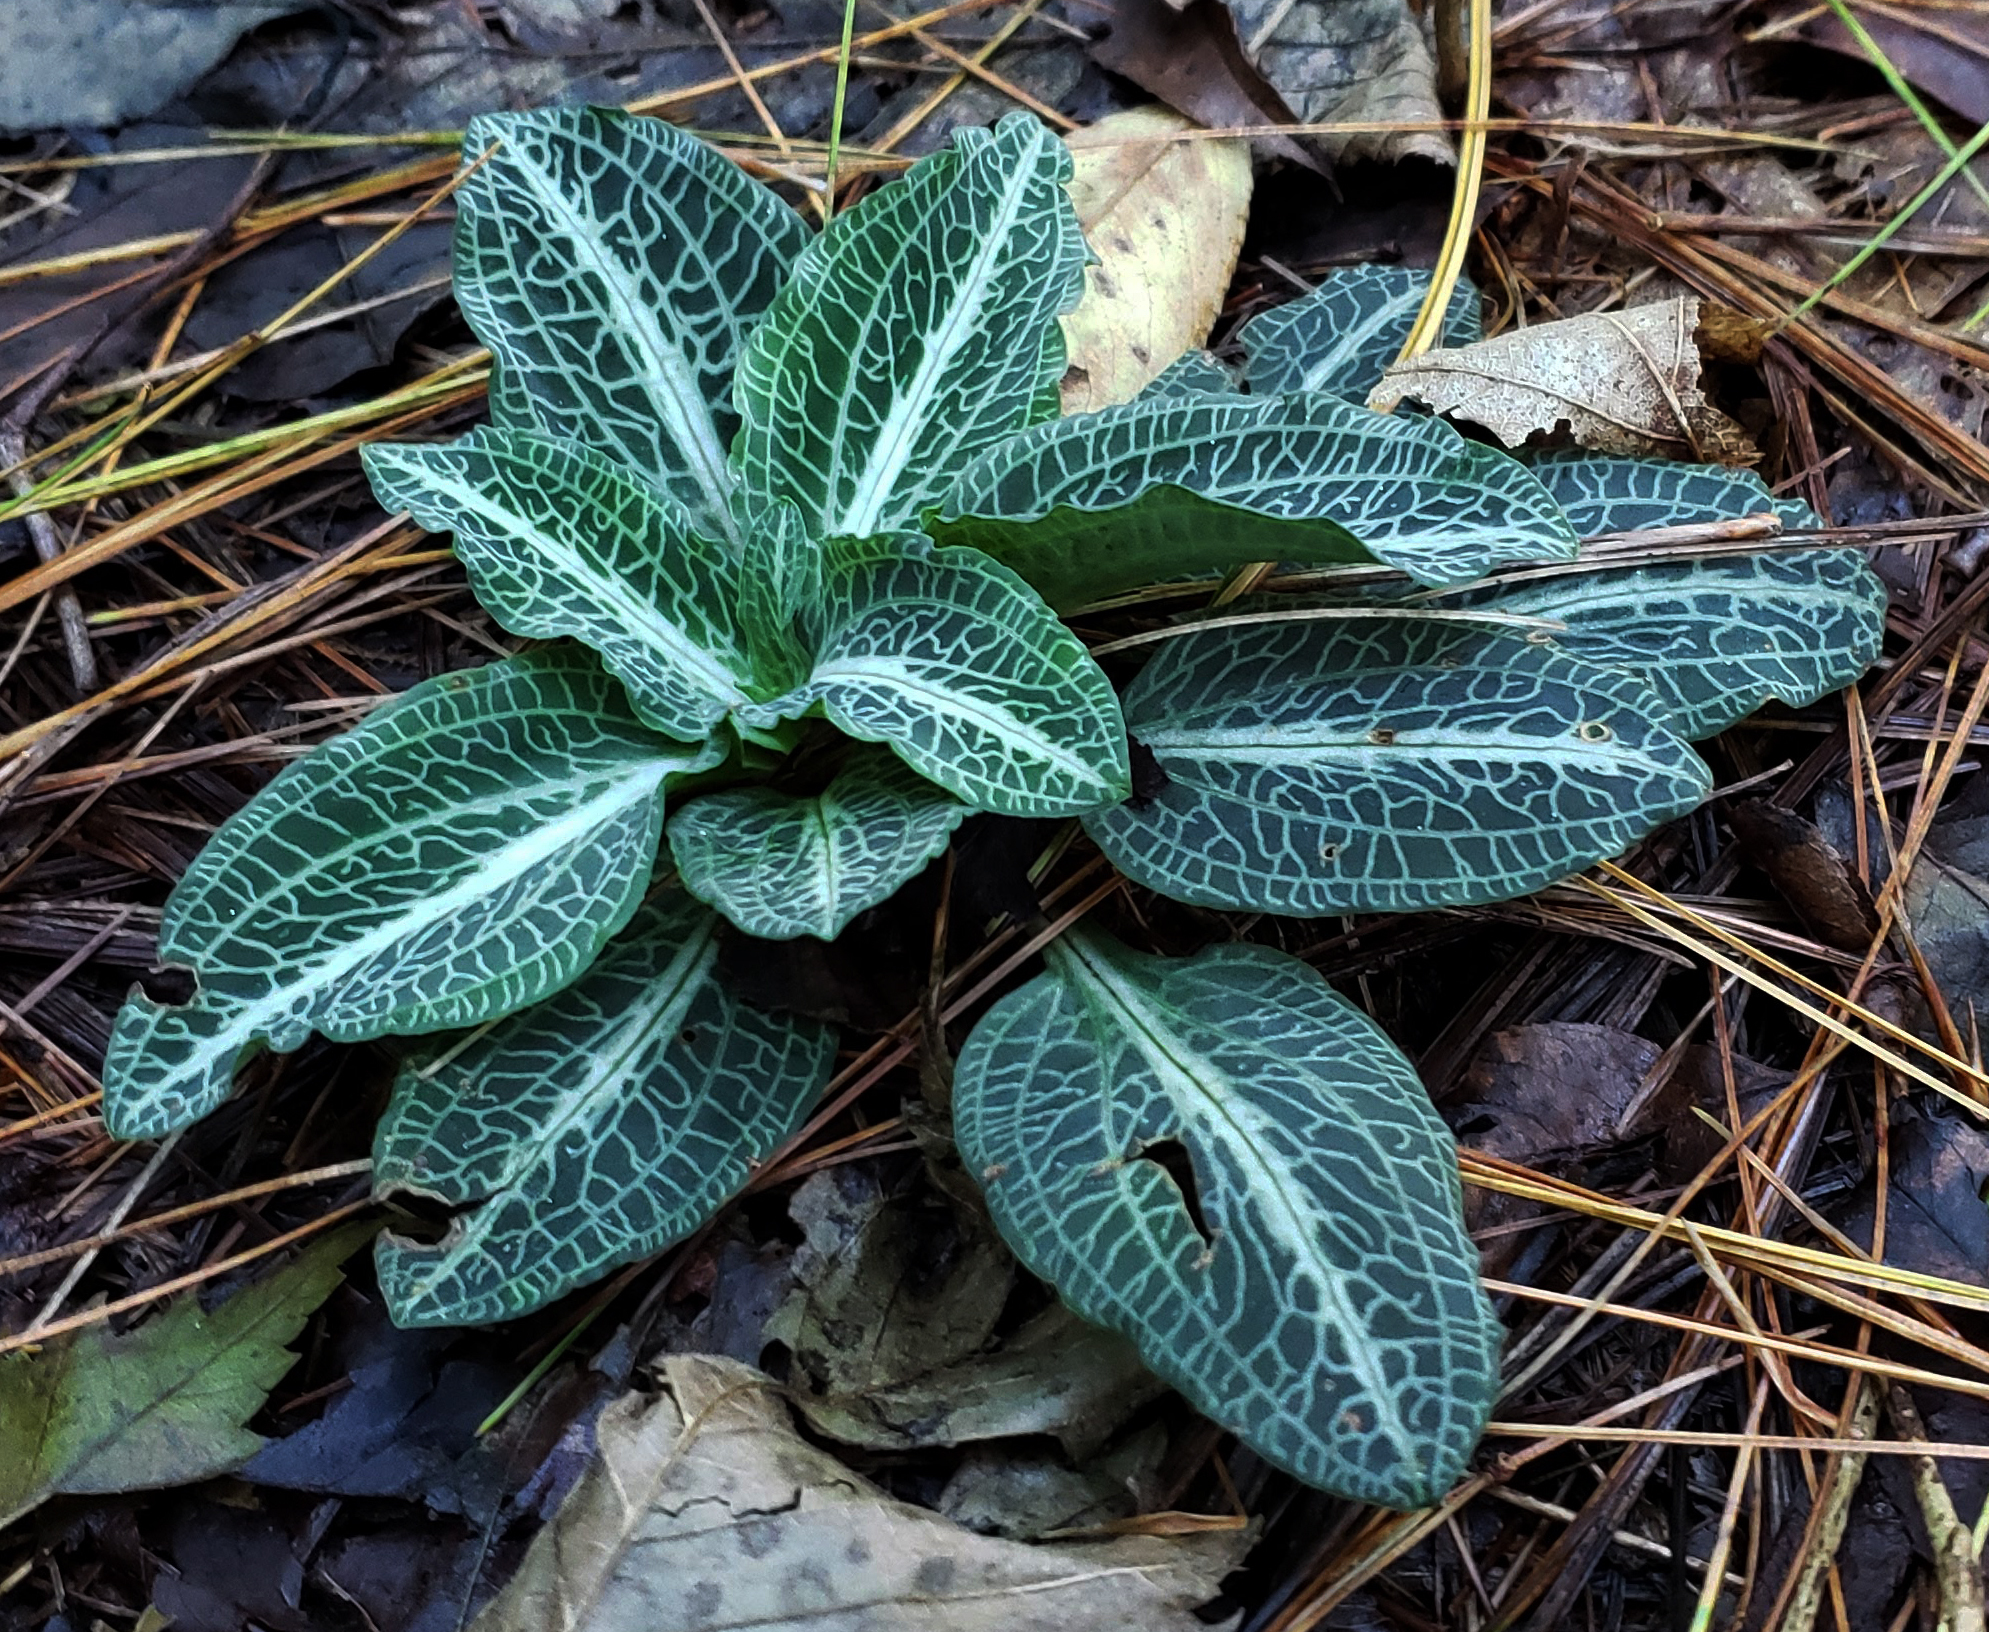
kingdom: Plantae
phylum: Tracheophyta
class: Liliopsida
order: Asparagales
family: Orchidaceae
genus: Goodyera
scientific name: Goodyera pubescens
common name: Downy rattlesnake-plantain
